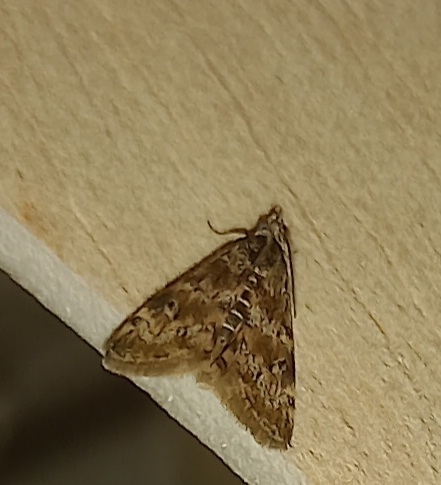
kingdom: Animalia
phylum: Arthropoda
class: Insecta
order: Lepidoptera
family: Crambidae
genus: Noctuelia
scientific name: Noctuelia Aporodes floralis
